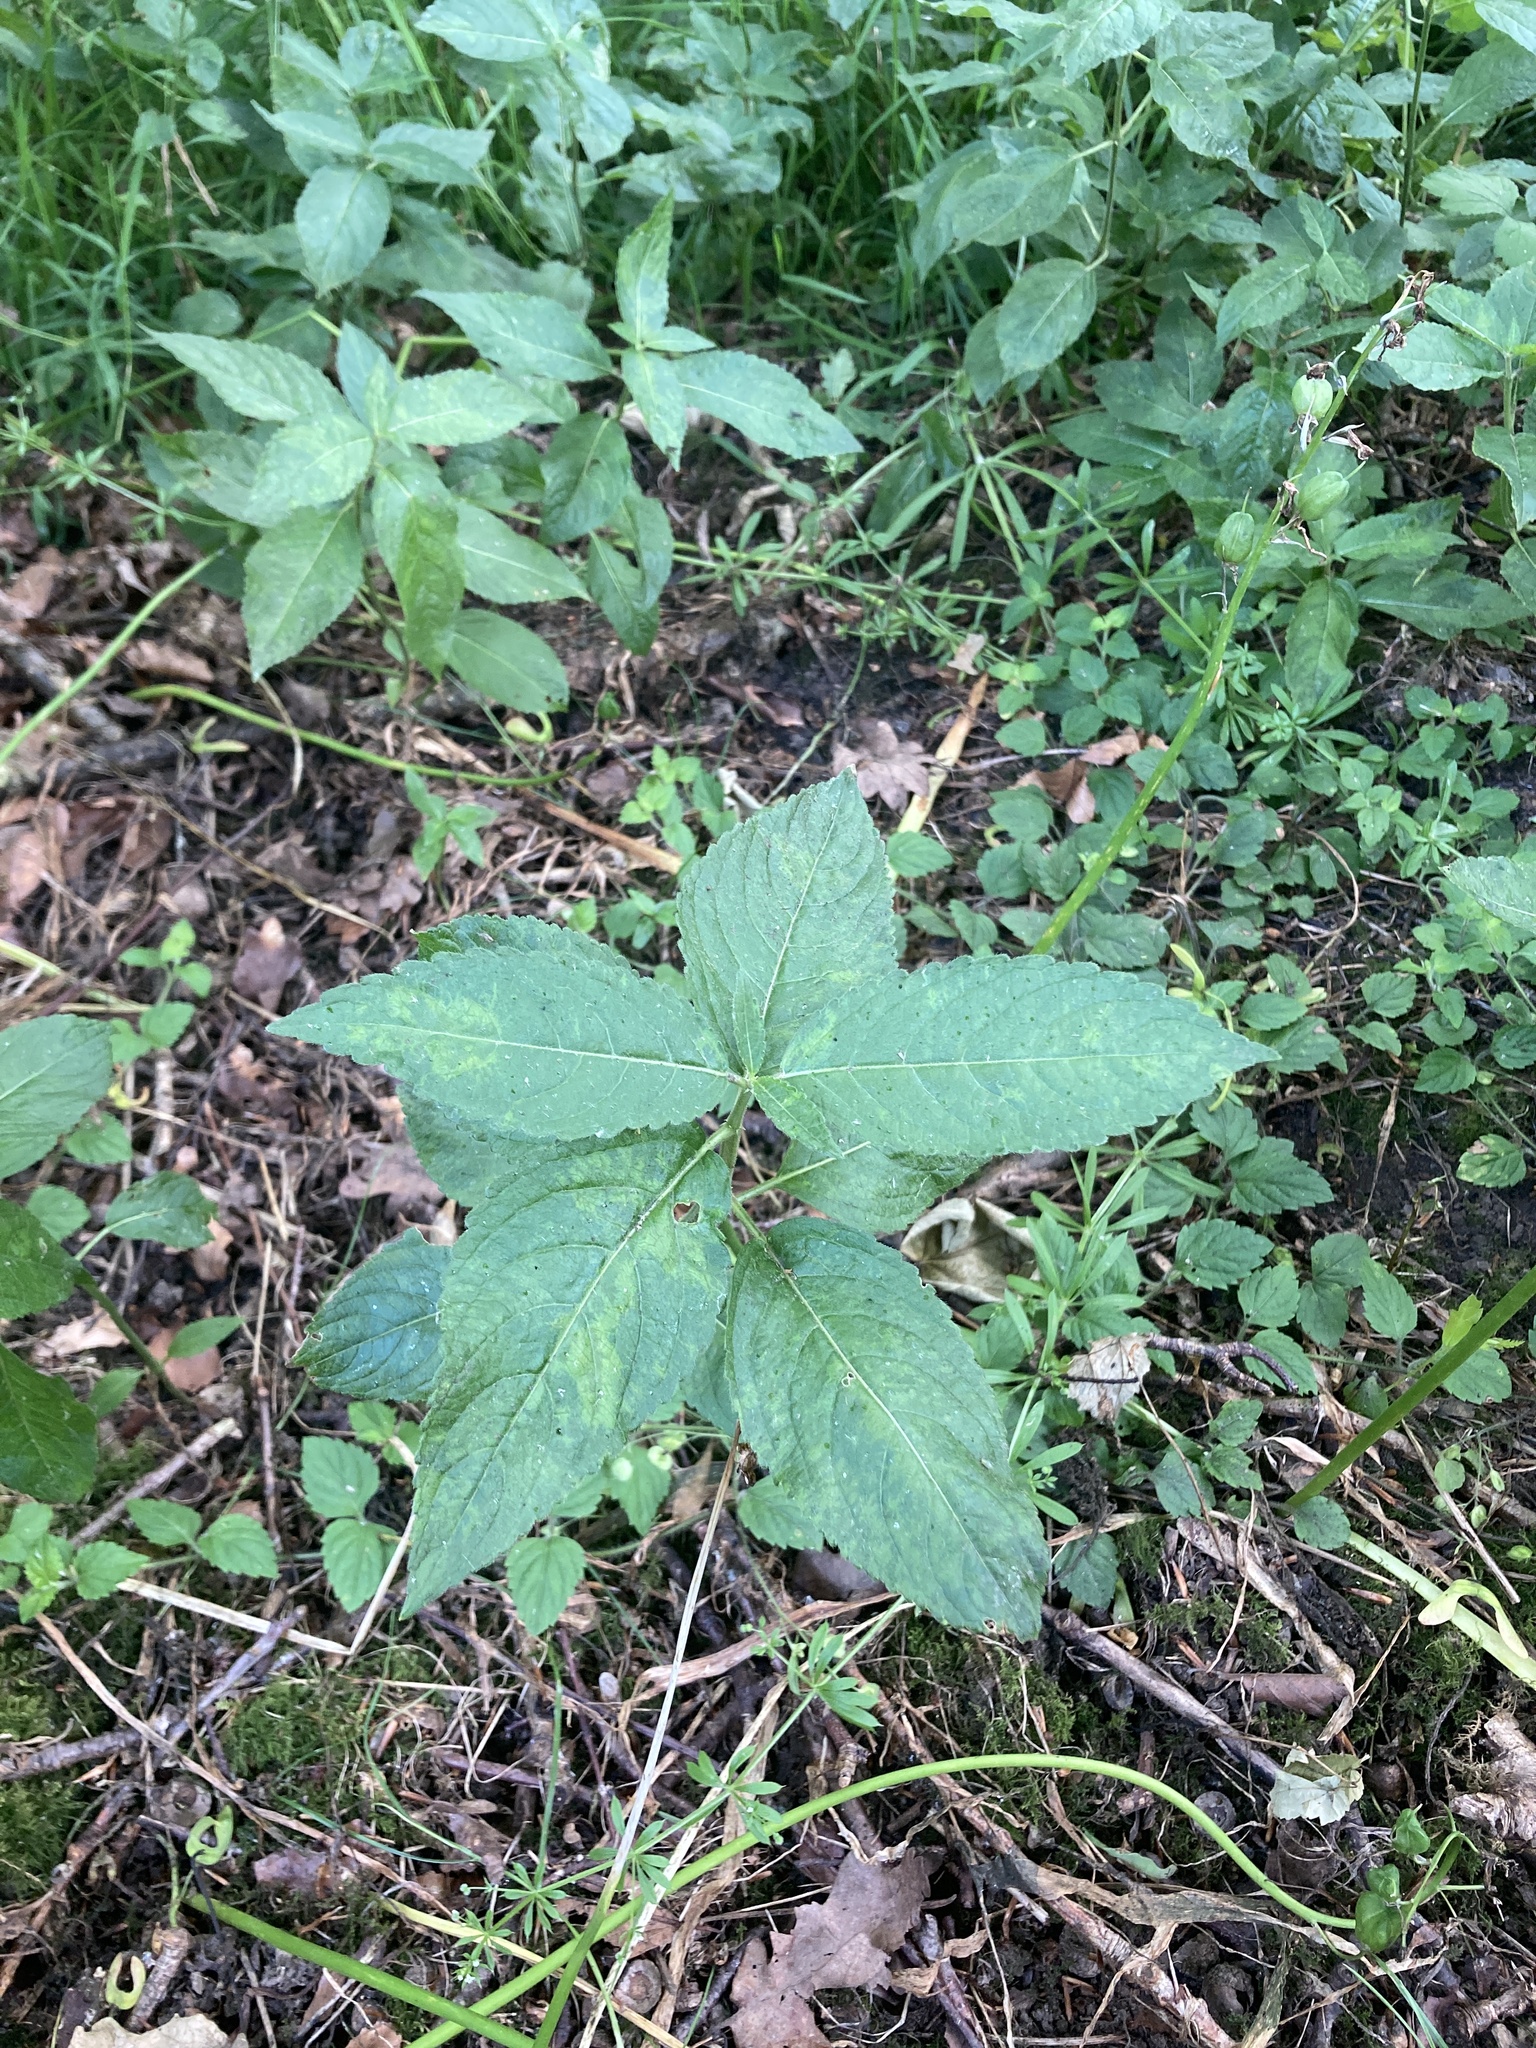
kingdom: Plantae
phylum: Tracheophyta
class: Magnoliopsida
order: Malpighiales
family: Euphorbiaceae
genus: Mercurialis
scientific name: Mercurialis perennis
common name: Dog mercury
